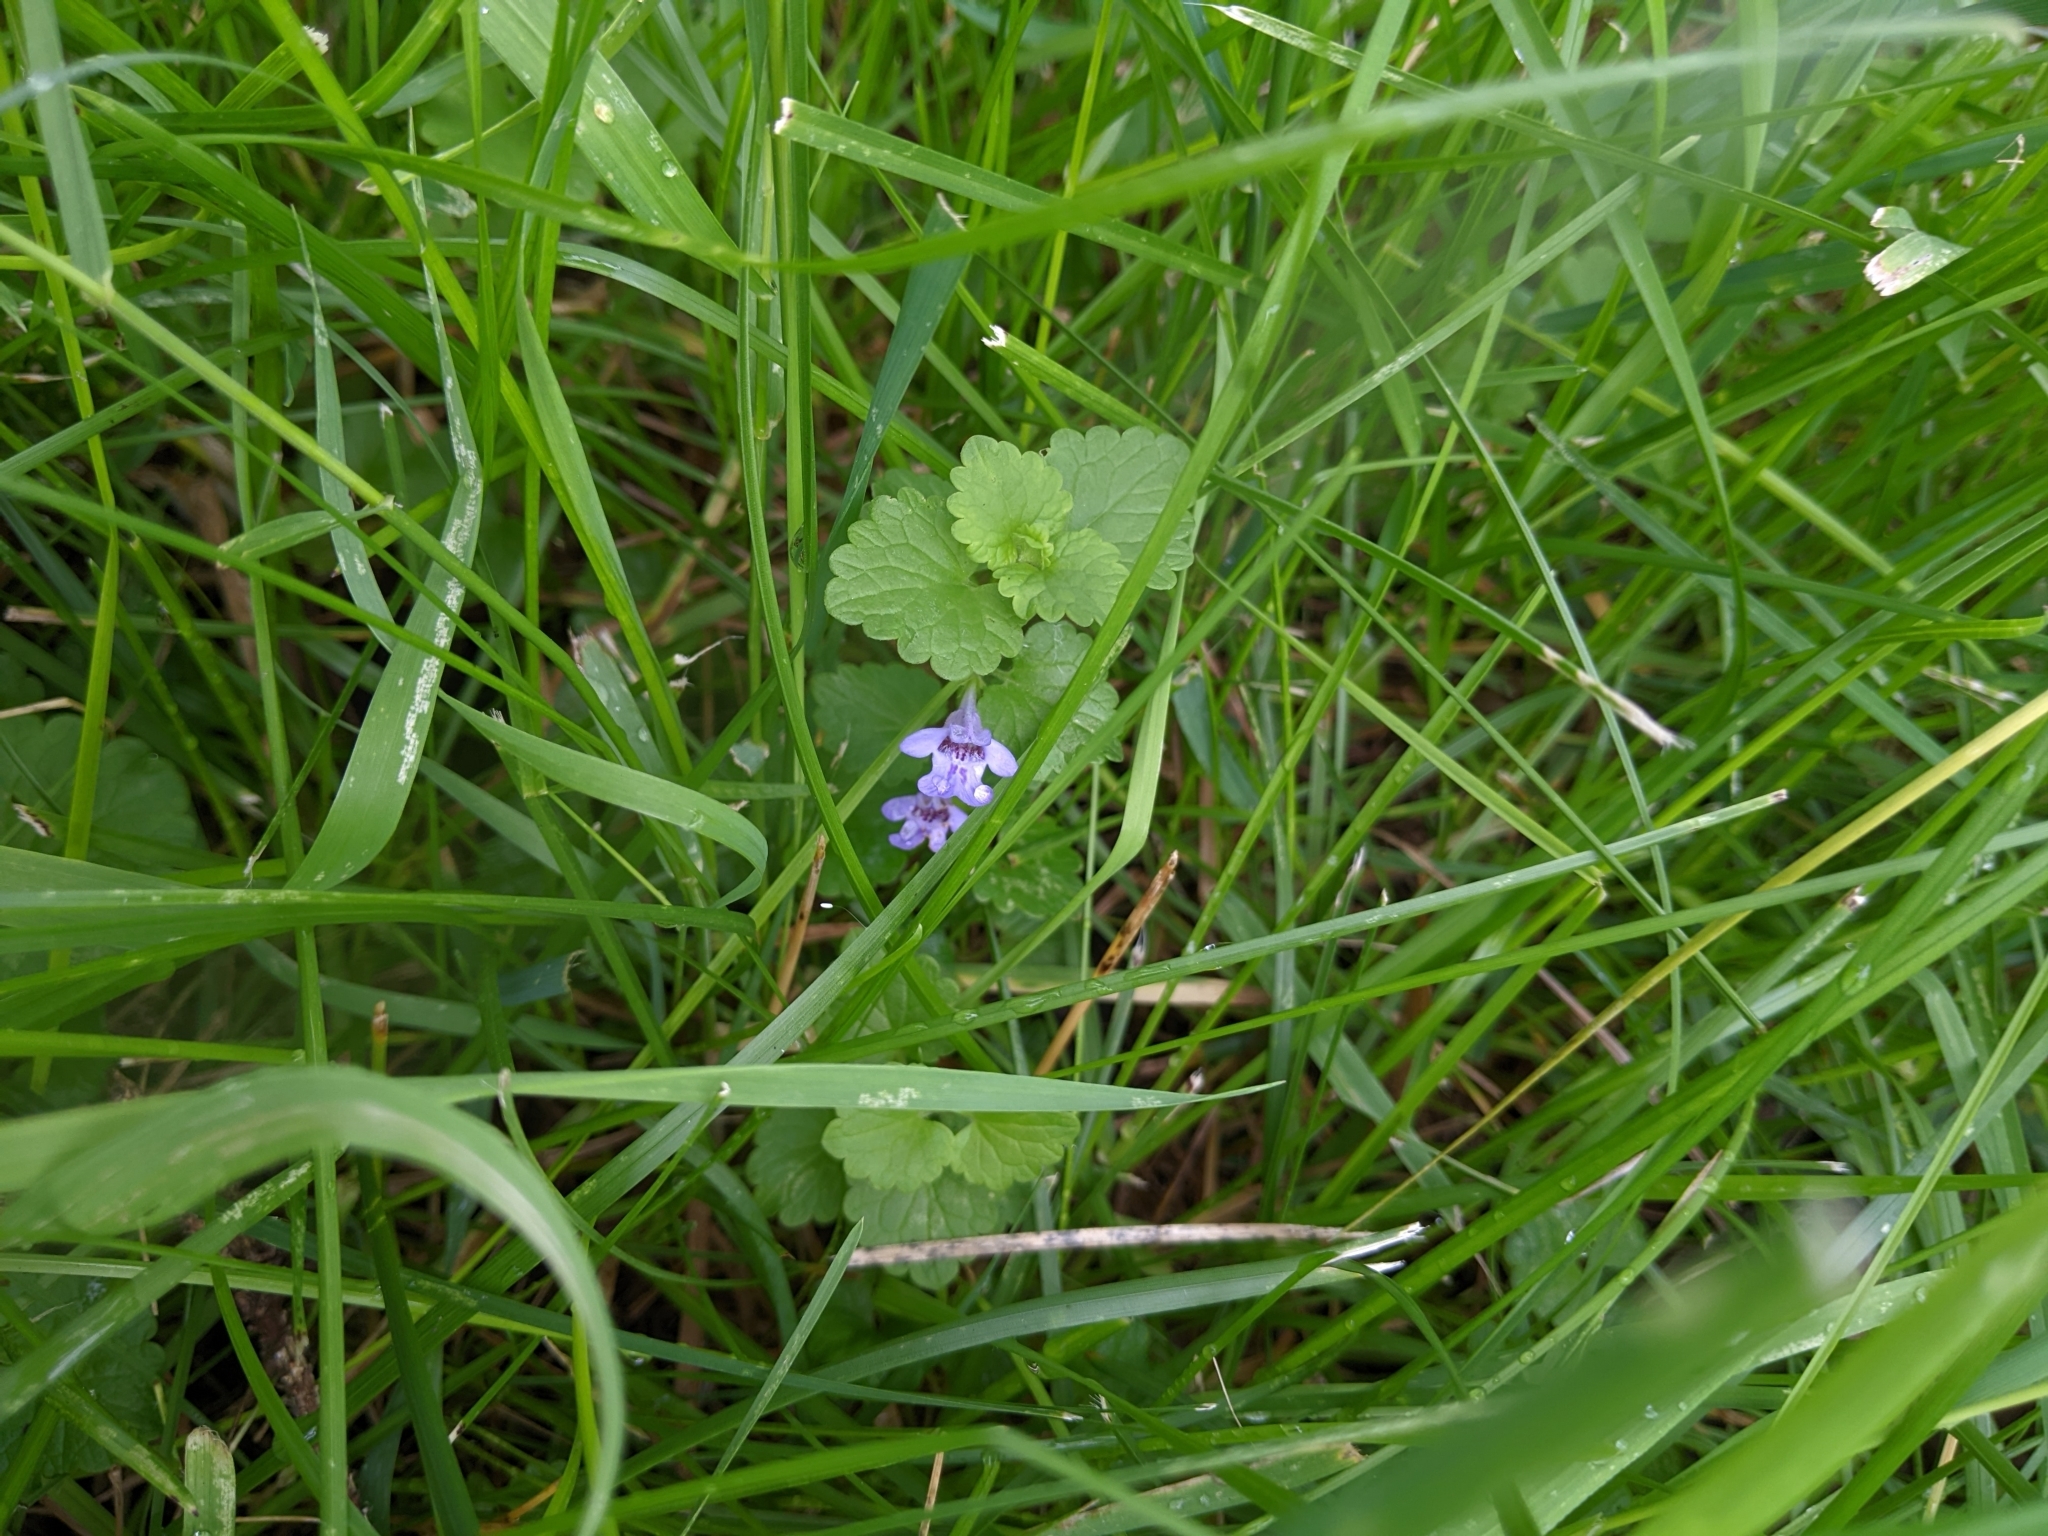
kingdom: Plantae
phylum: Tracheophyta
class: Magnoliopsida
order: Lamiales
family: Lamiaceae
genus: Glechoma
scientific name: Glechoma hederacea
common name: Ground ivy
